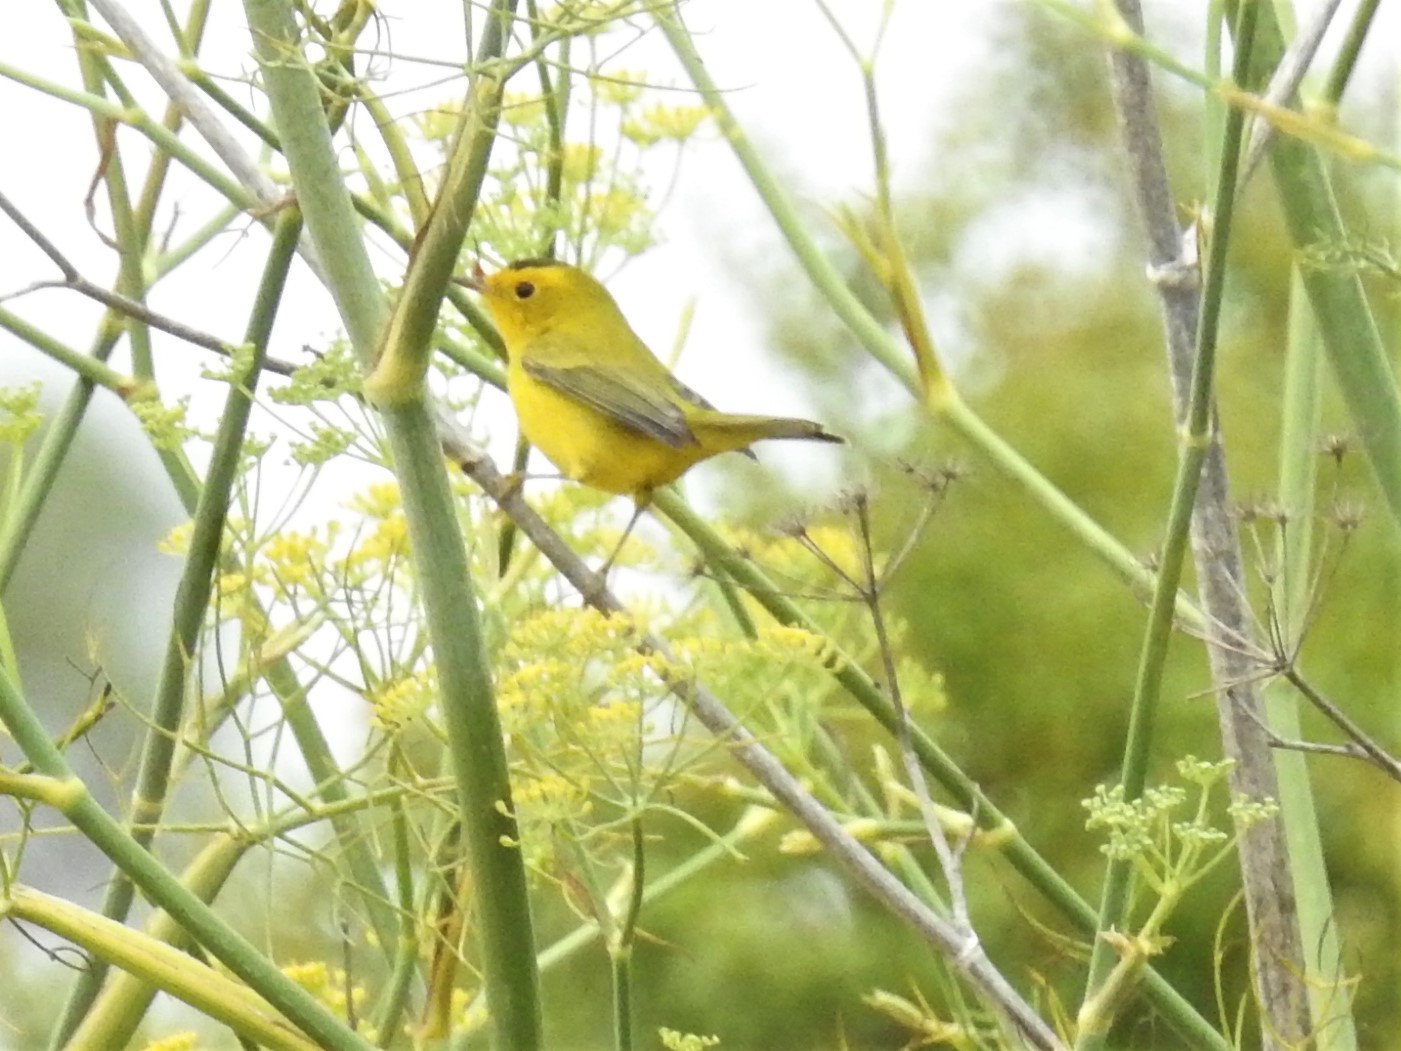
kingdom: Animalia
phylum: Chordata
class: Aves
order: Passeriformes
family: Parulidae
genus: Cardellina
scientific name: Cardellina pusilla
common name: Wilson's warbler
